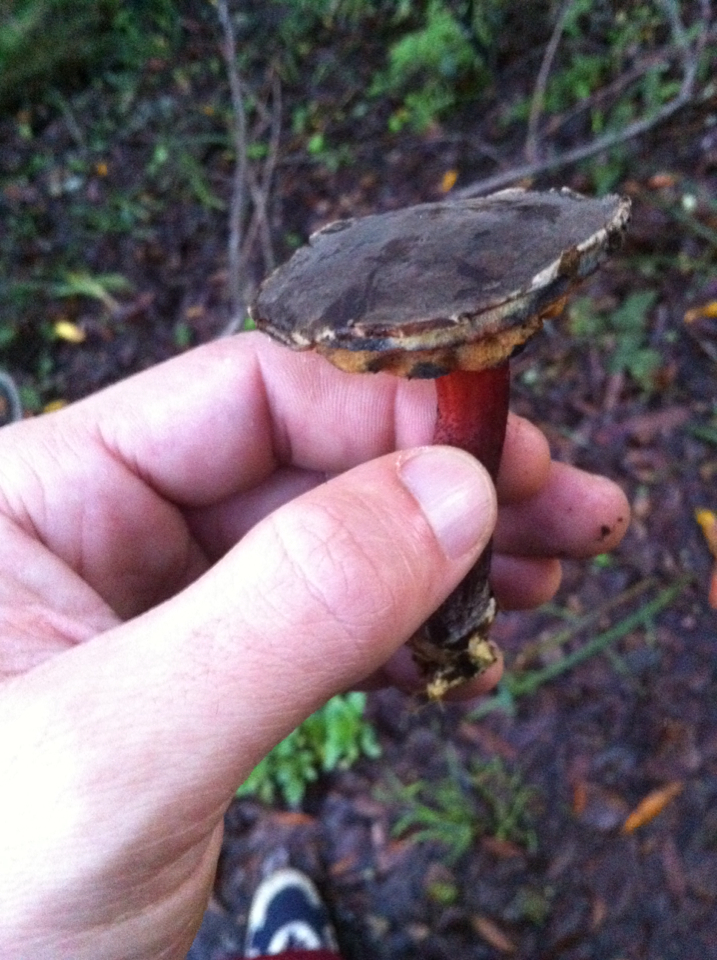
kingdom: Fungi
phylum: Basidiomycota
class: Agaricomycetes
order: Boletales
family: Boletaceae
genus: Xerocomellus
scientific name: Xerocomellus mendocinensis
